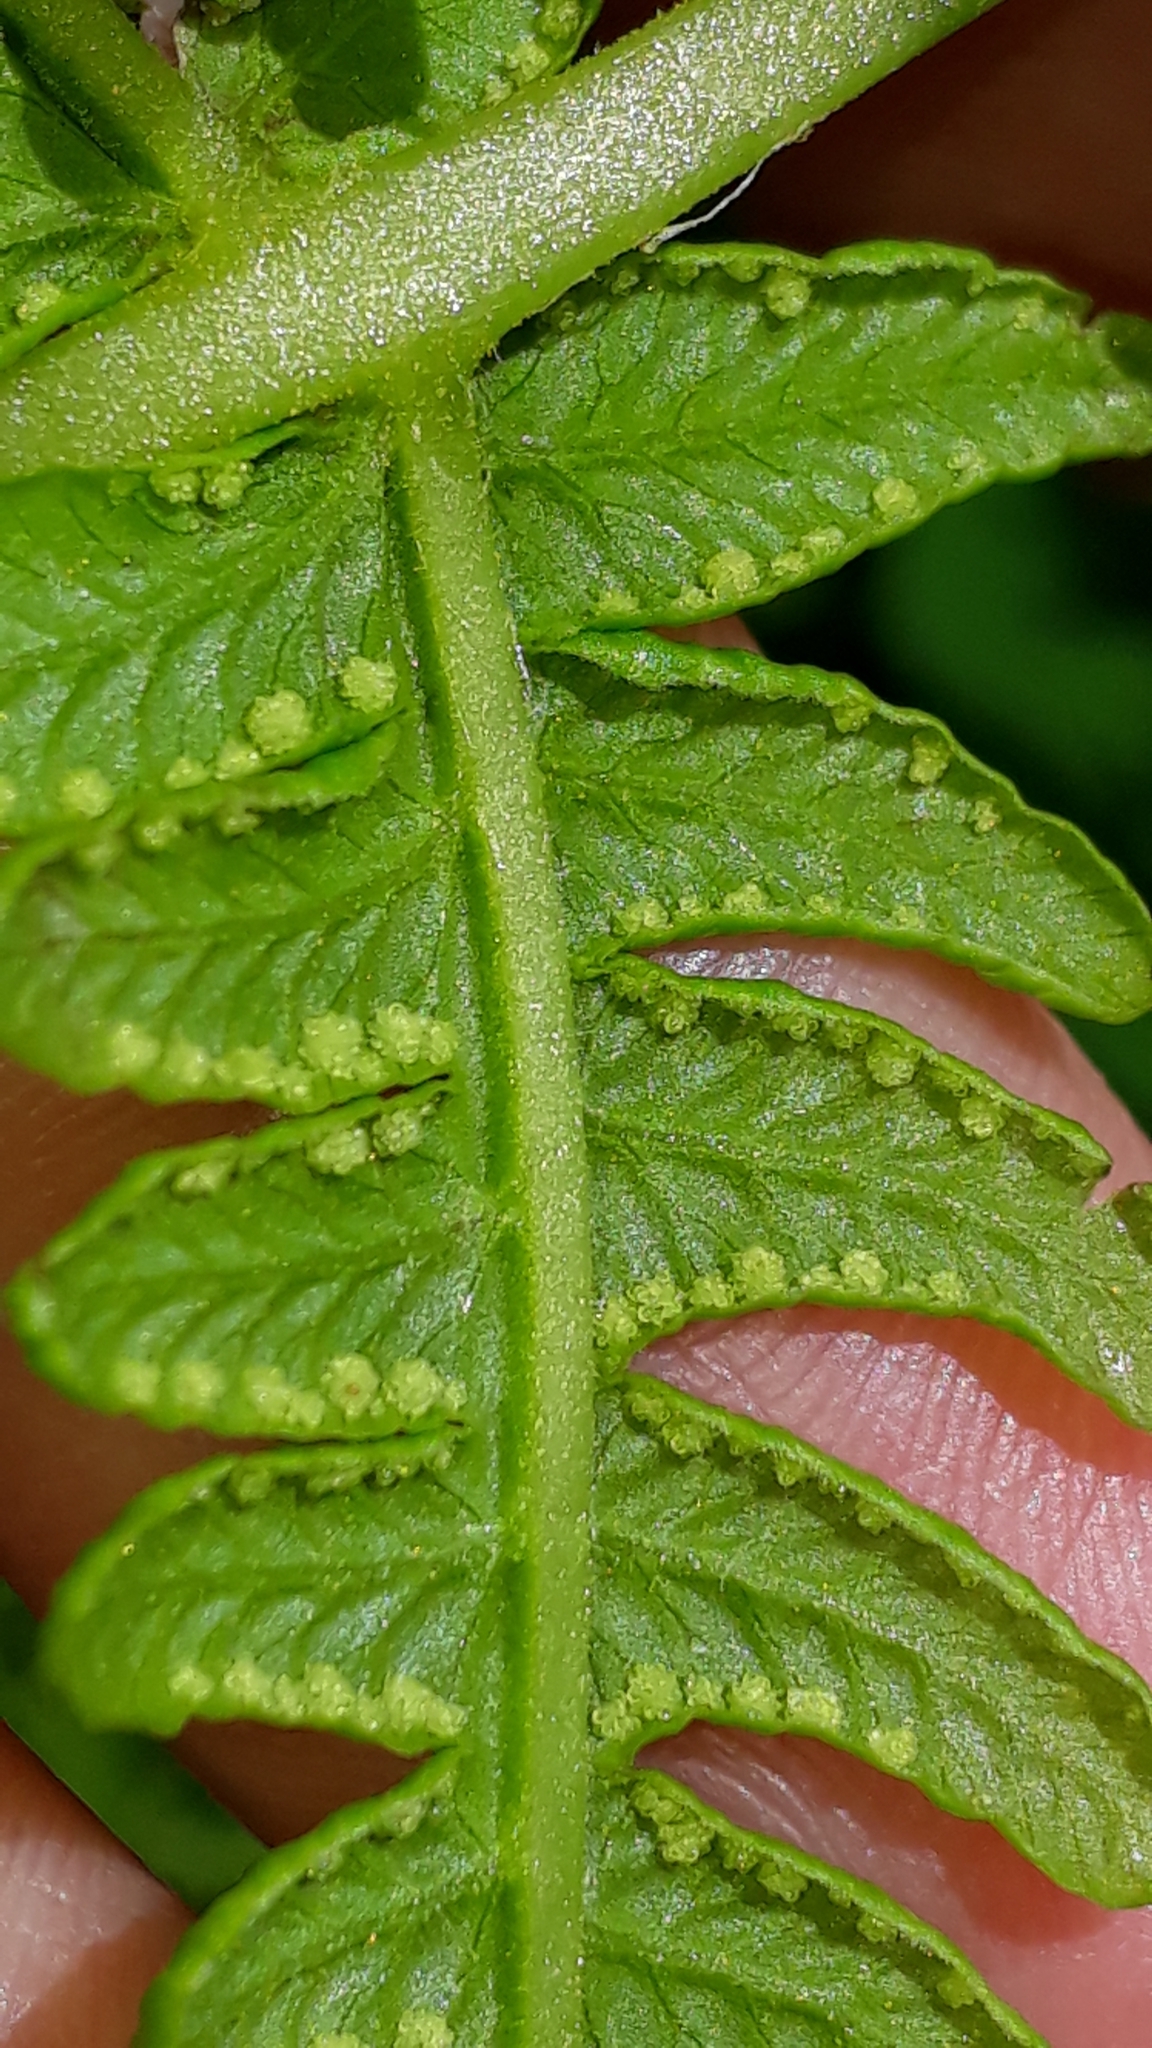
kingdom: Plantae
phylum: Tracheophyta
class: Polypodiopsida
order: Polypodiales
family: Thelypteridaceae
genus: Oreopteris
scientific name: Oreopteris limbosperma
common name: Lemon-scented fern
